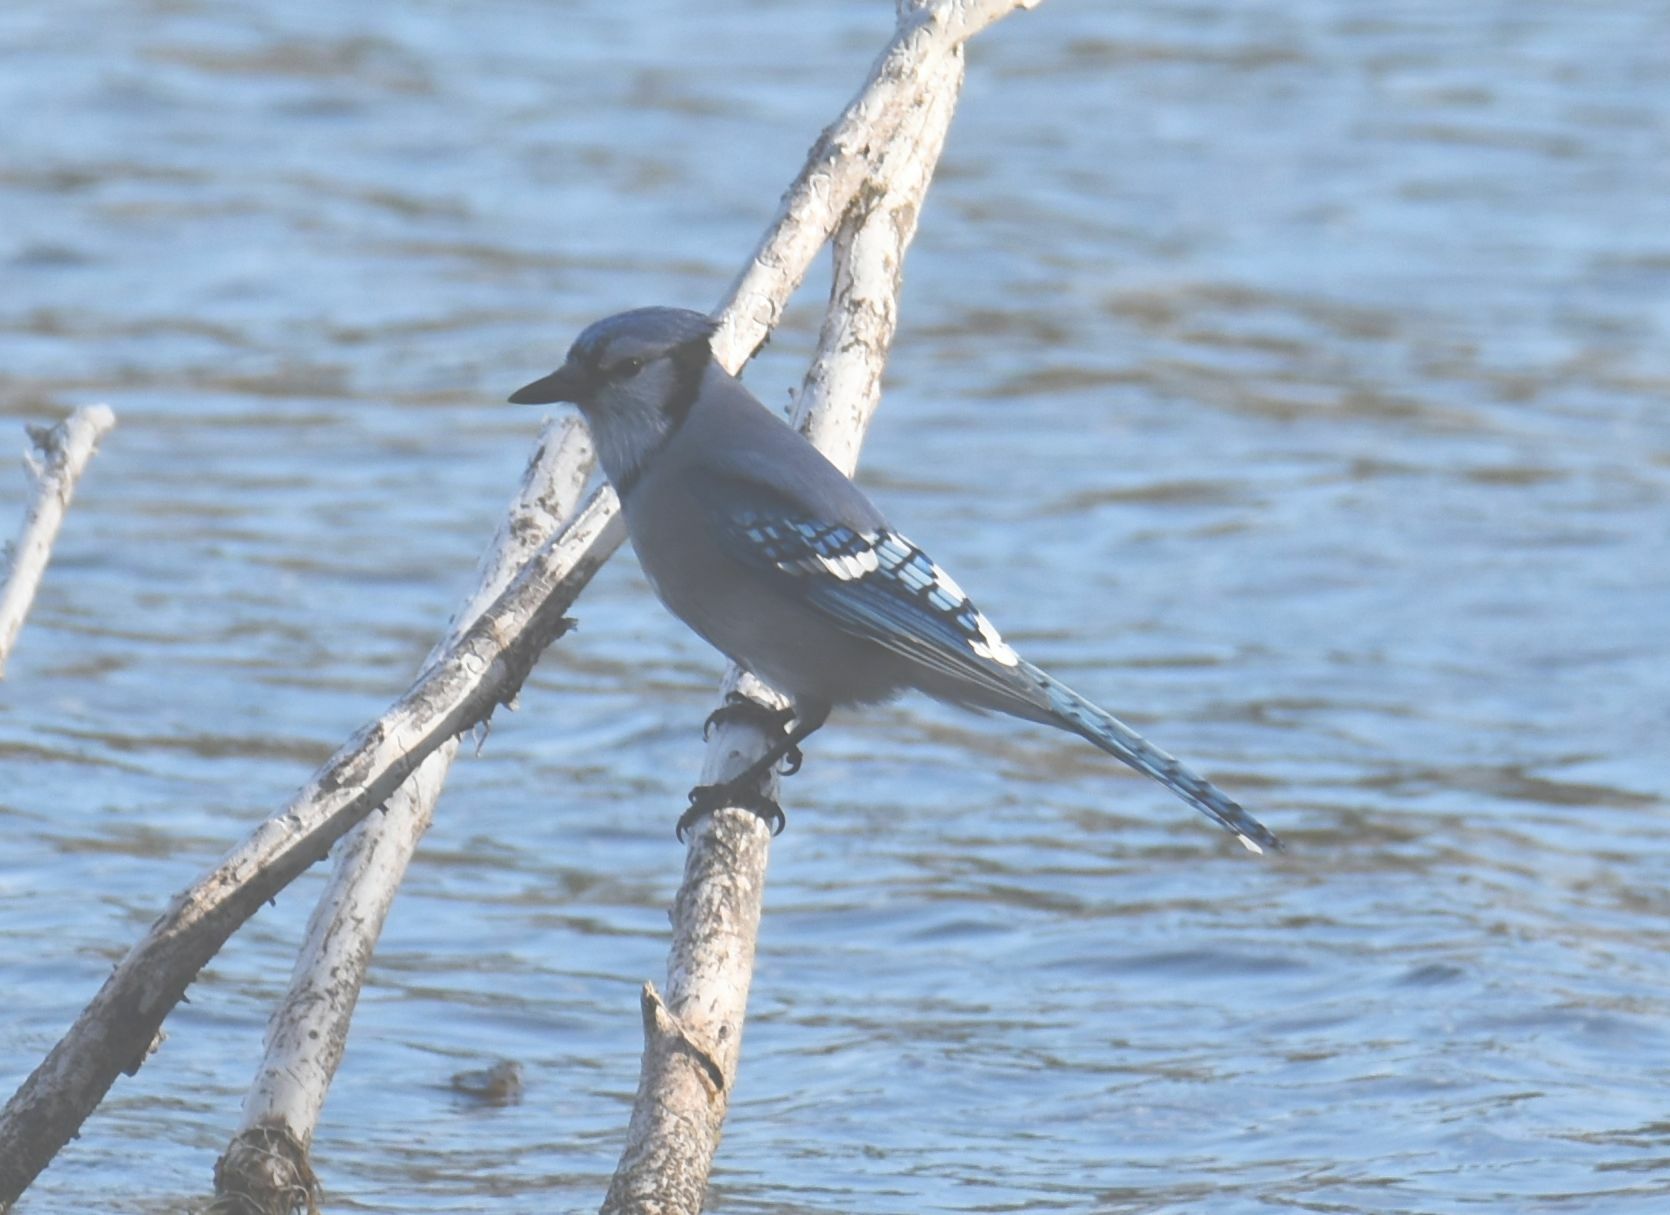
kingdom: Animalia
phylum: Chordata
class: Aves
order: Passeriformes
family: Corvidae
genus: Cyanocitta
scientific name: Cyanocitta cristata
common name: Blue jay
